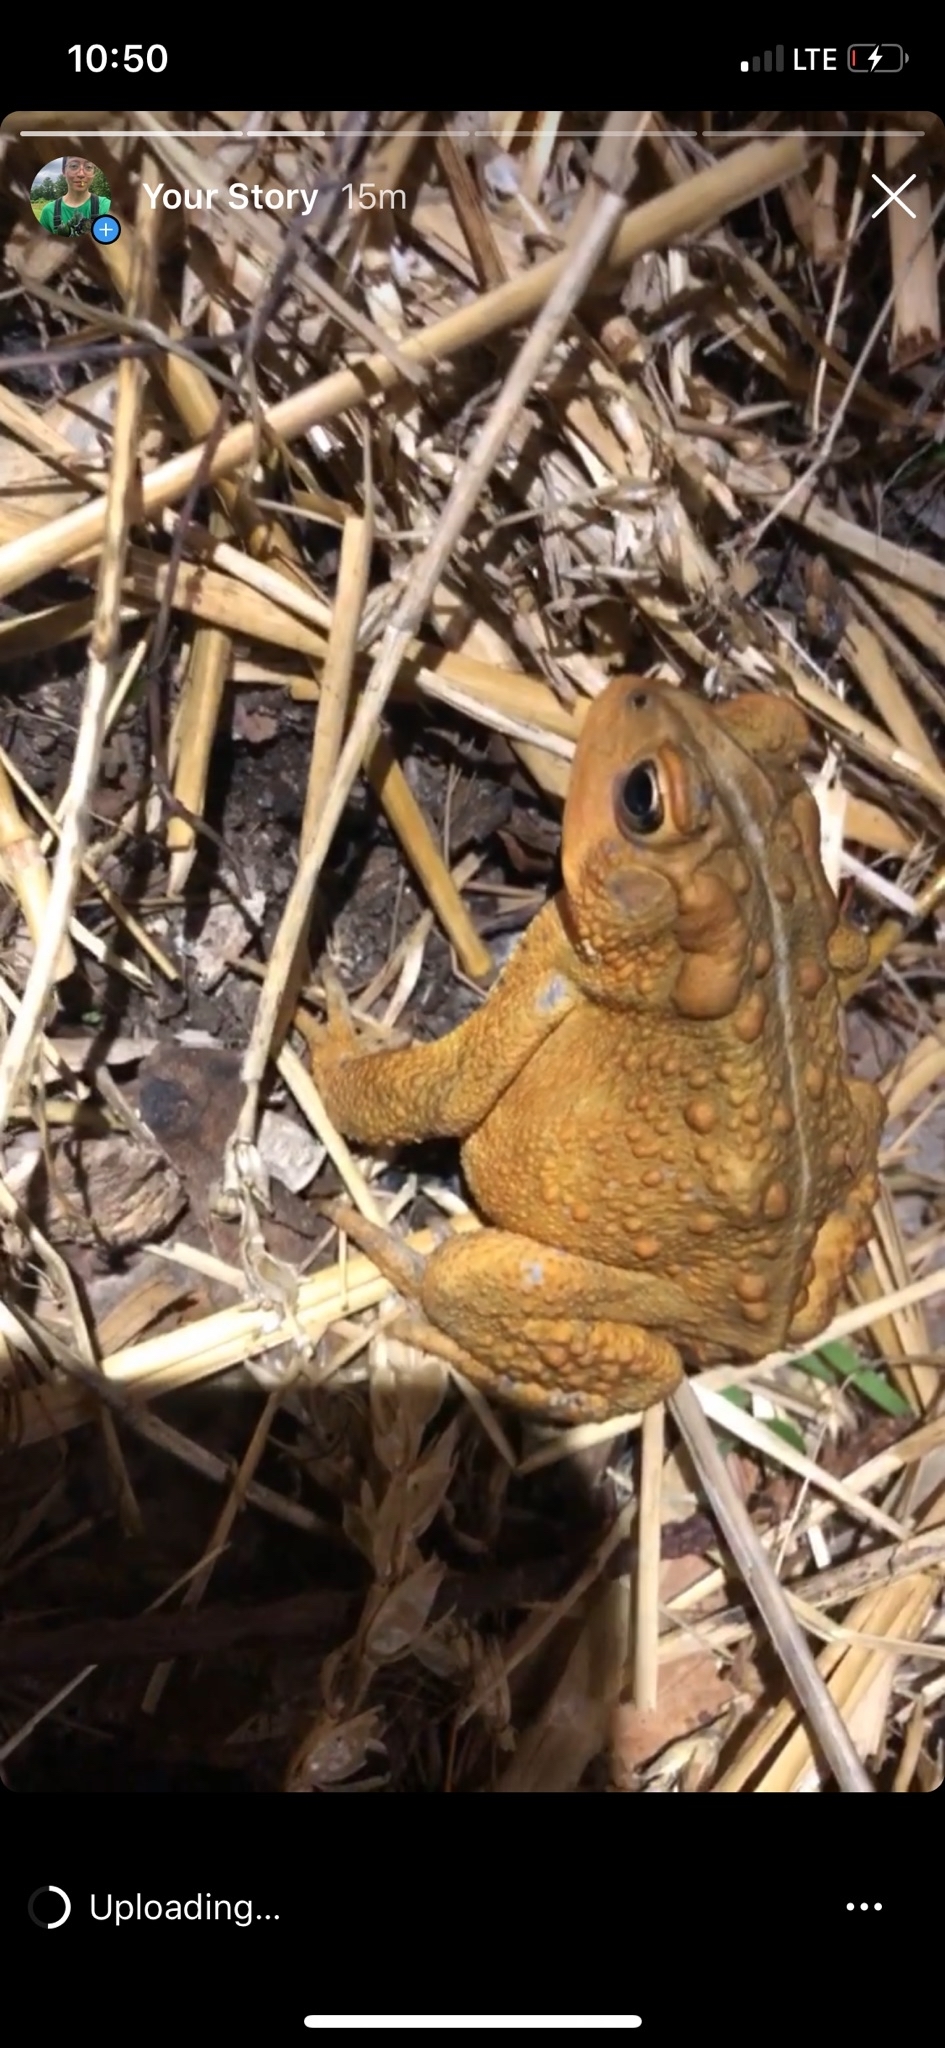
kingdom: Animalia
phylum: Chordata
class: Amphibia
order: Anura
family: Bufonidae
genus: Anaxyrus
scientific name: Anaxyrus americanus
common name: American toad
